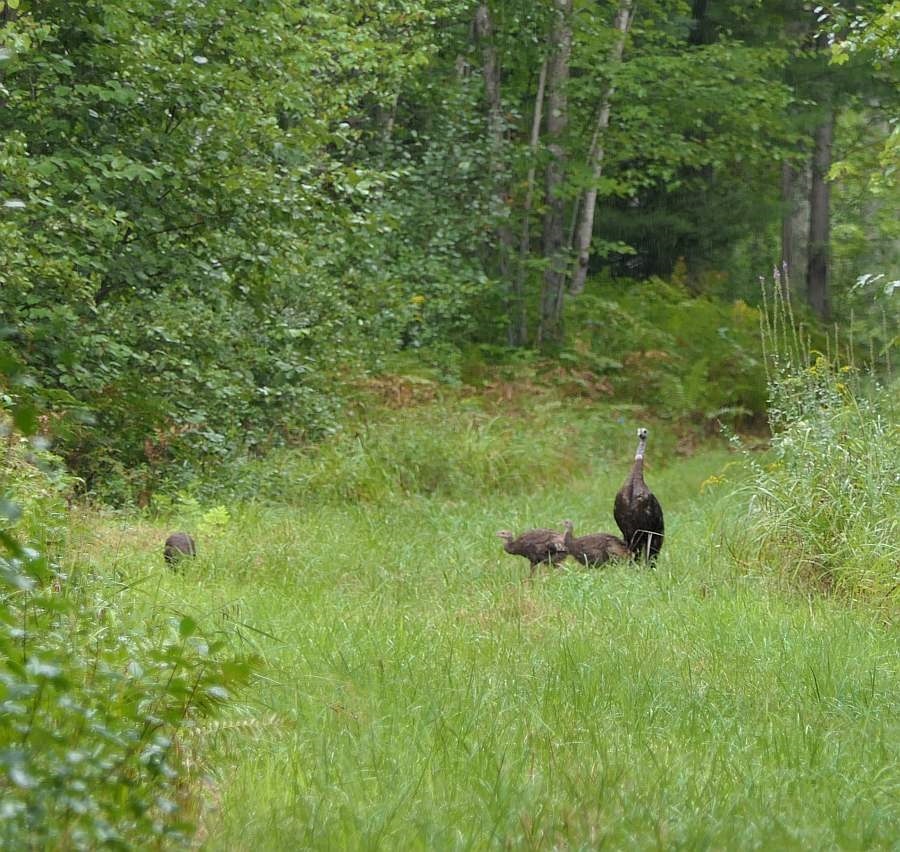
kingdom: Animalia
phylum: Chordata
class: Aves
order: Galliformes
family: Phasianidae
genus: Meleagris
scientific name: Meleagris gallopavo
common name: Wild turkey
